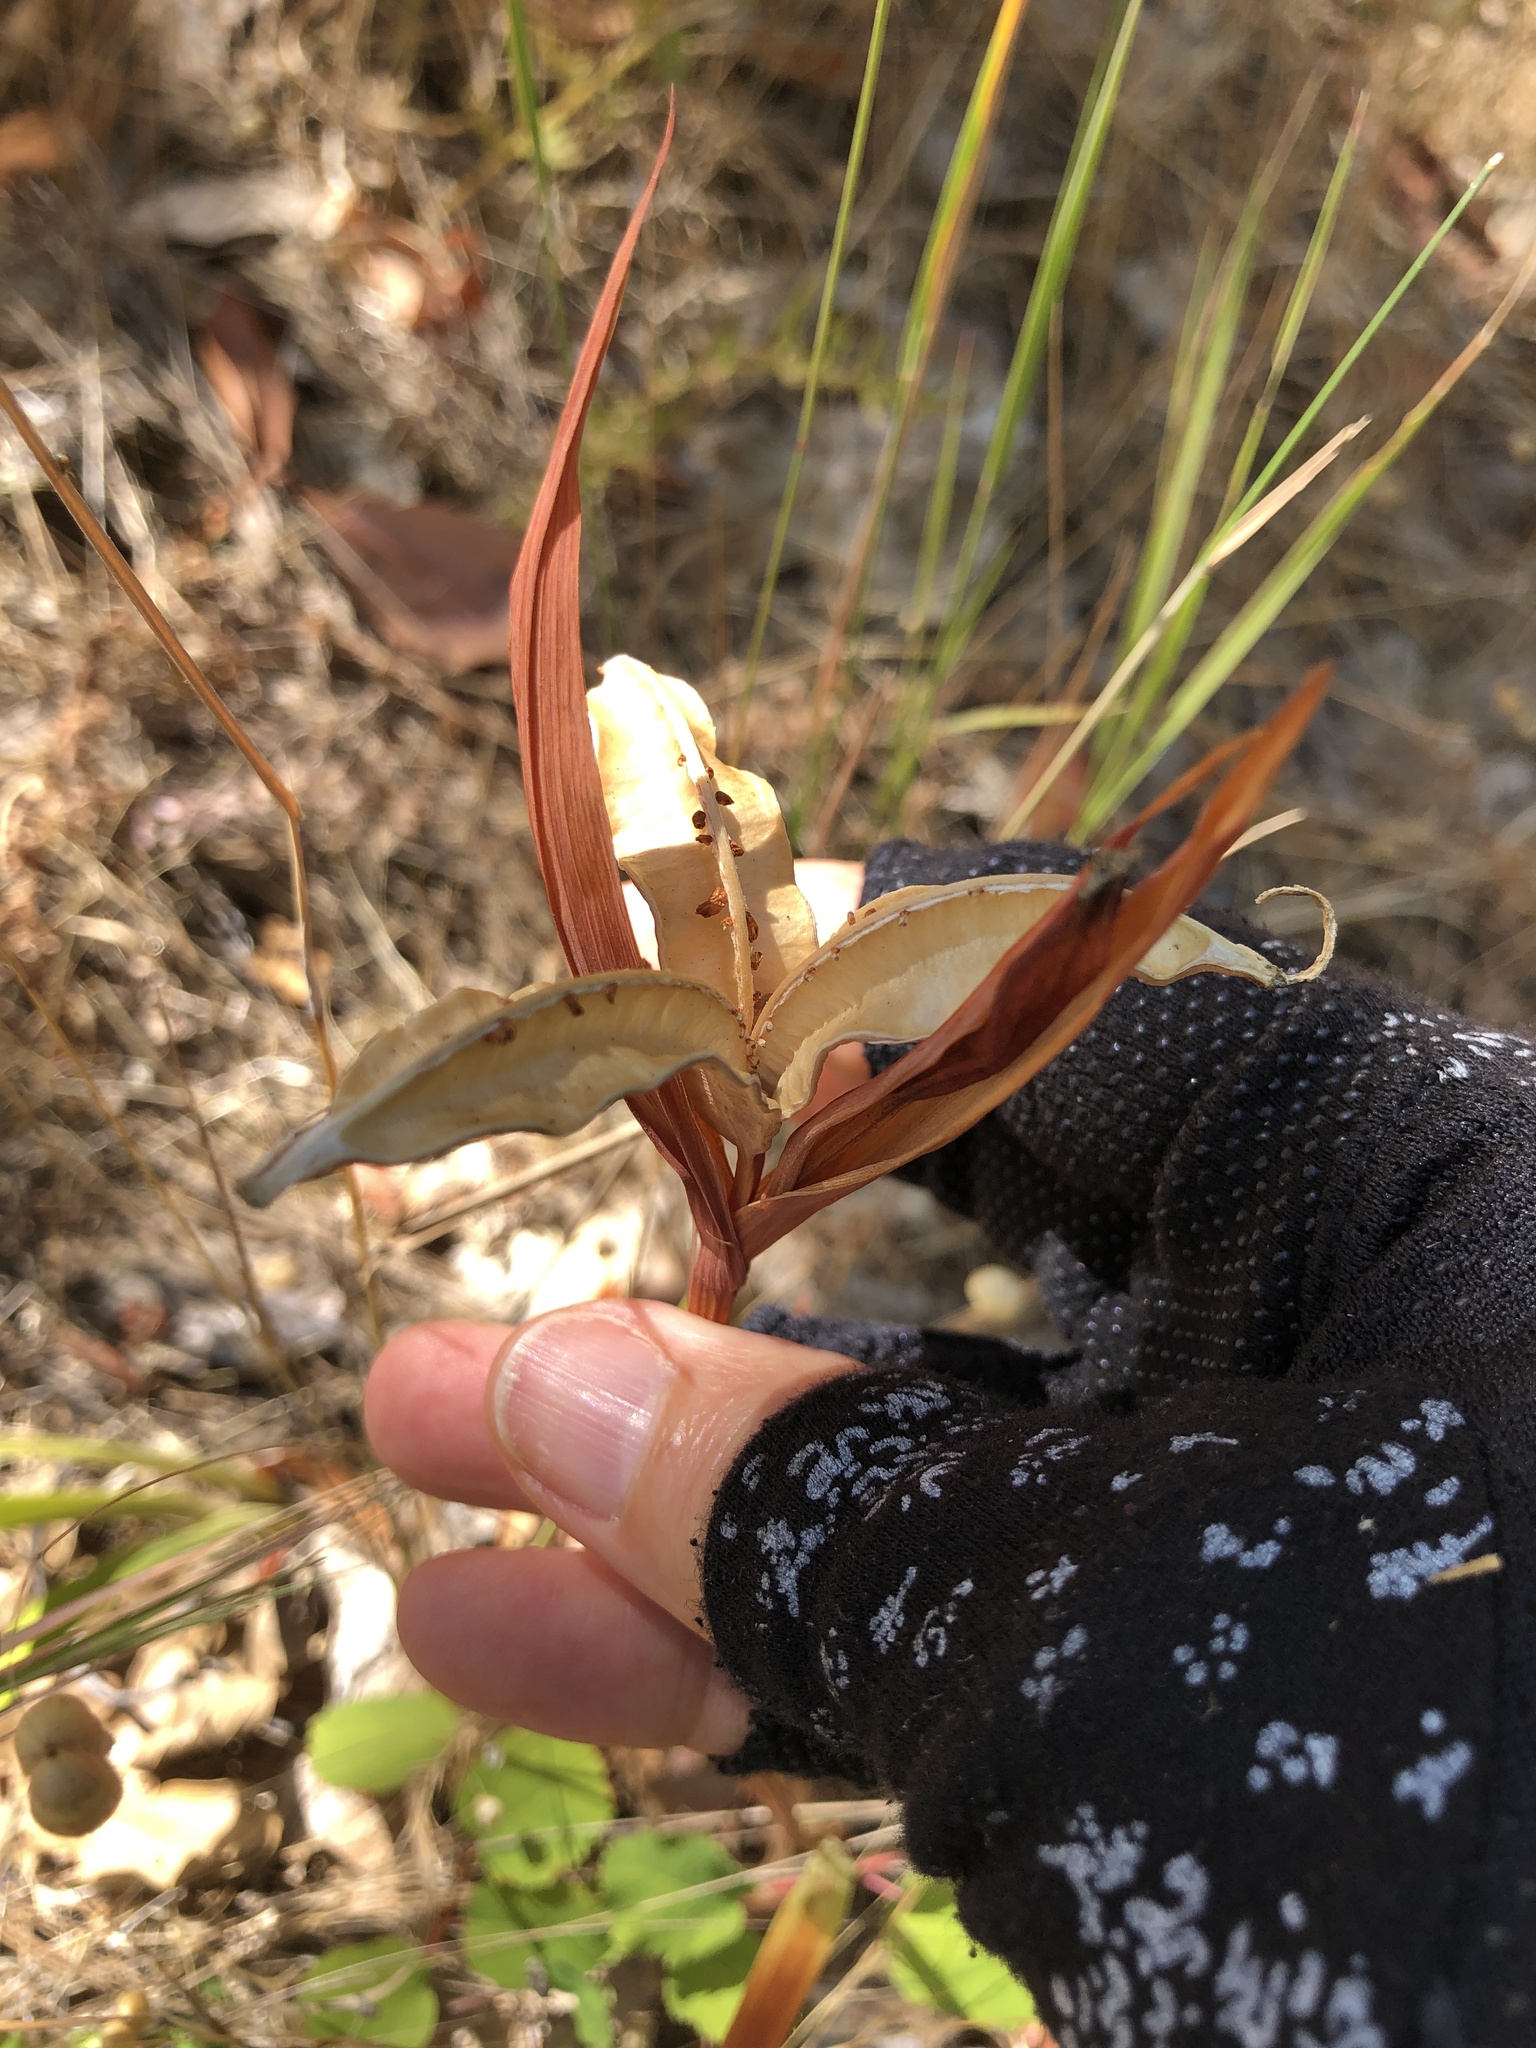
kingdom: Plantae
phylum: Tracheophyta
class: Liliopsida
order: Asparagales
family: Iridaceae
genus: Iris
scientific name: Iris macrosiphon
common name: Ground iris
